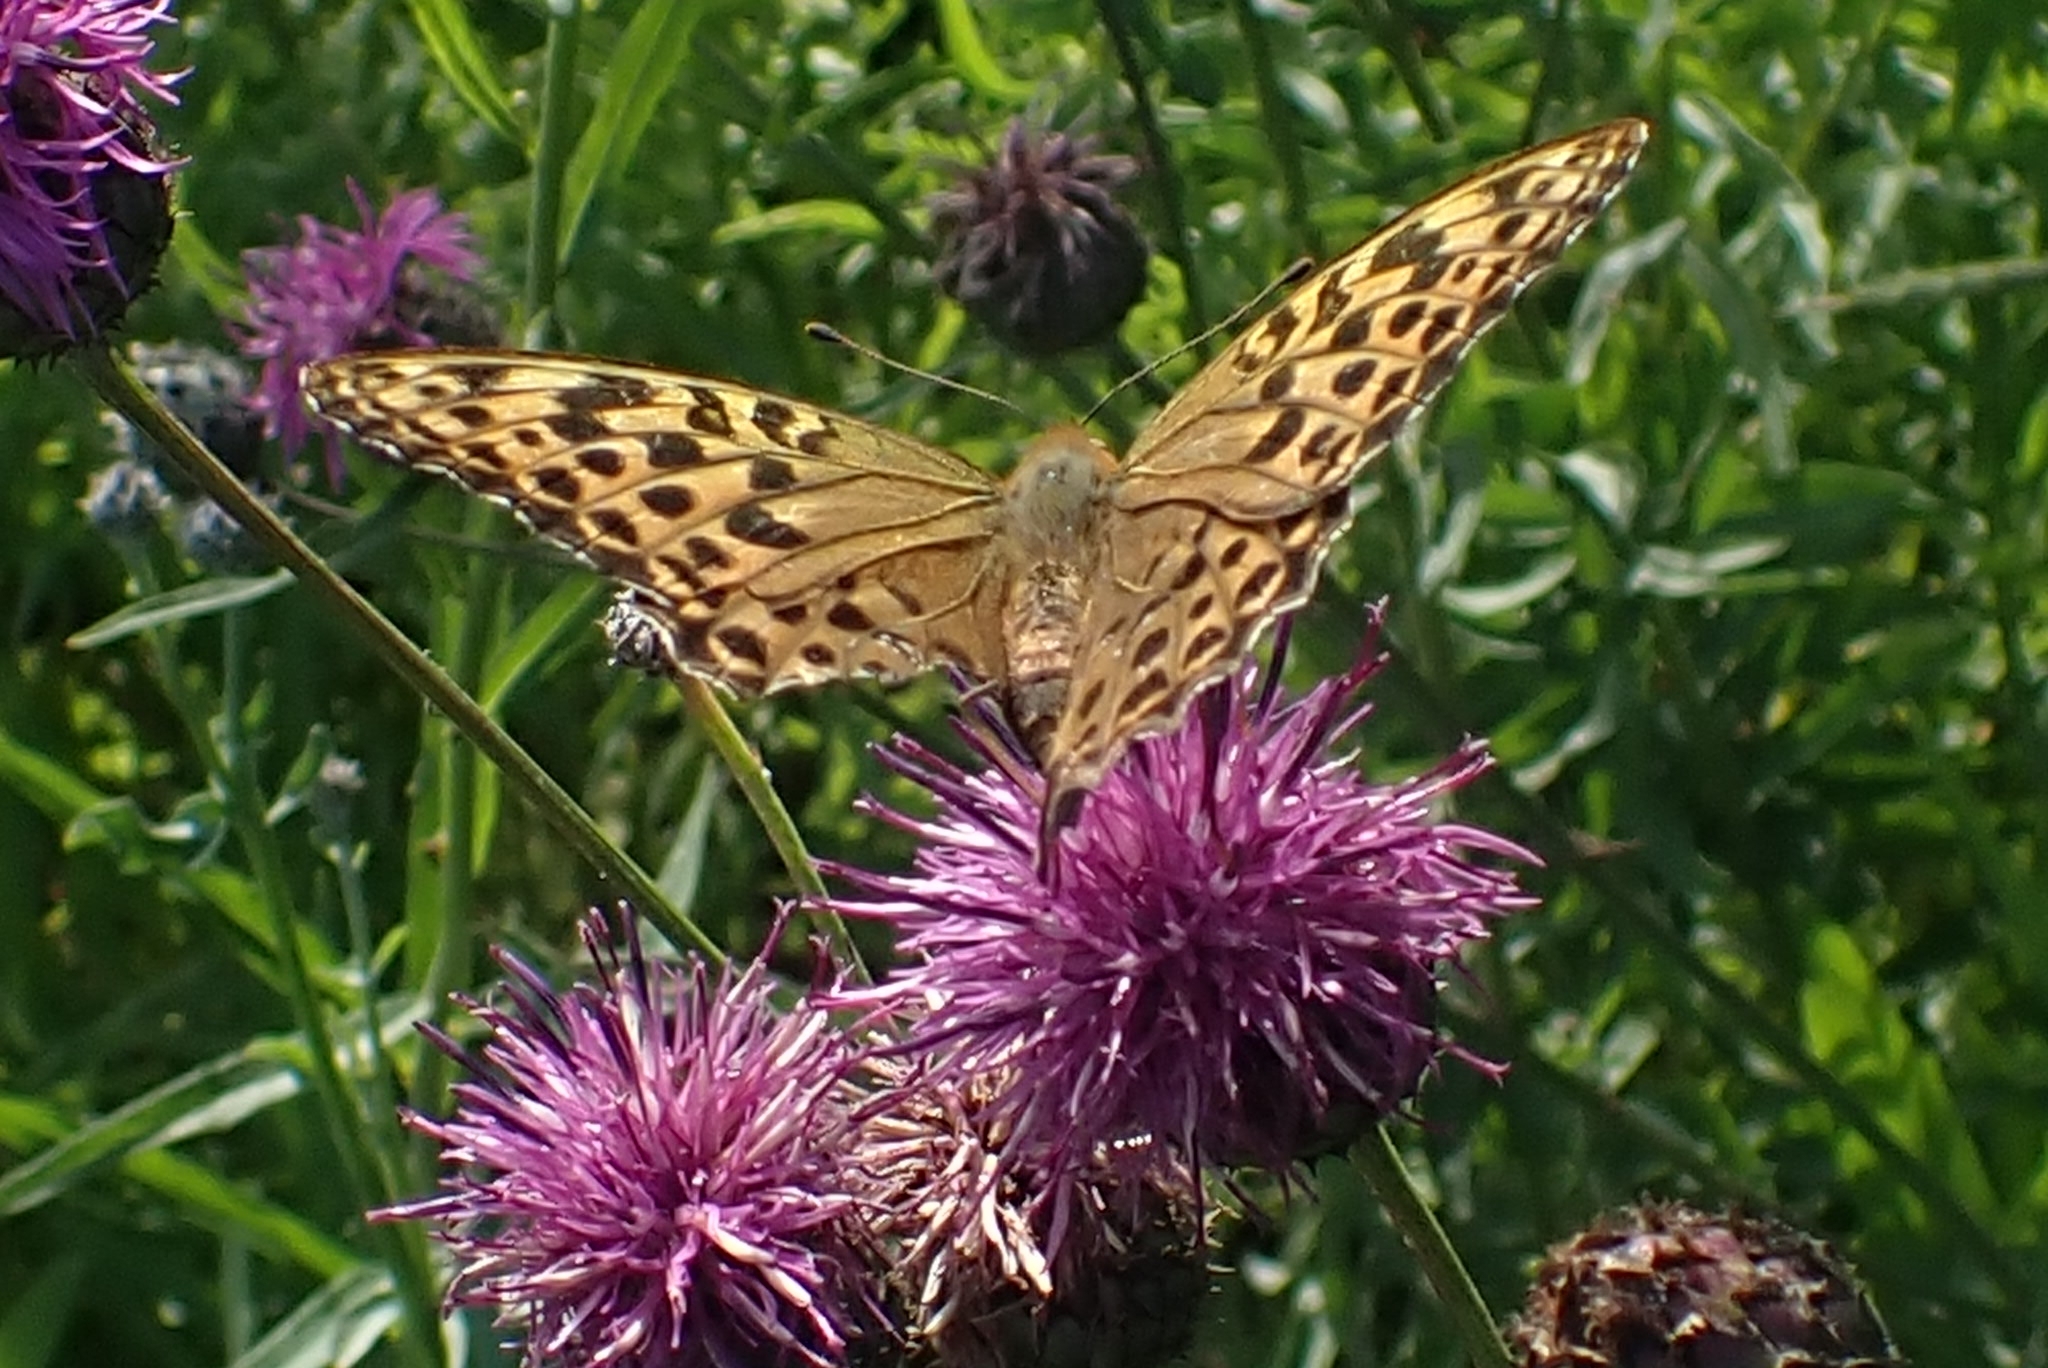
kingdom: Animalia
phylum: Arthropoda
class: Insecta
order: Lepidoptera
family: Nymphalidae
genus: Argynnis
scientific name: Argynnis paphia
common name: Silver-washed fritillary
